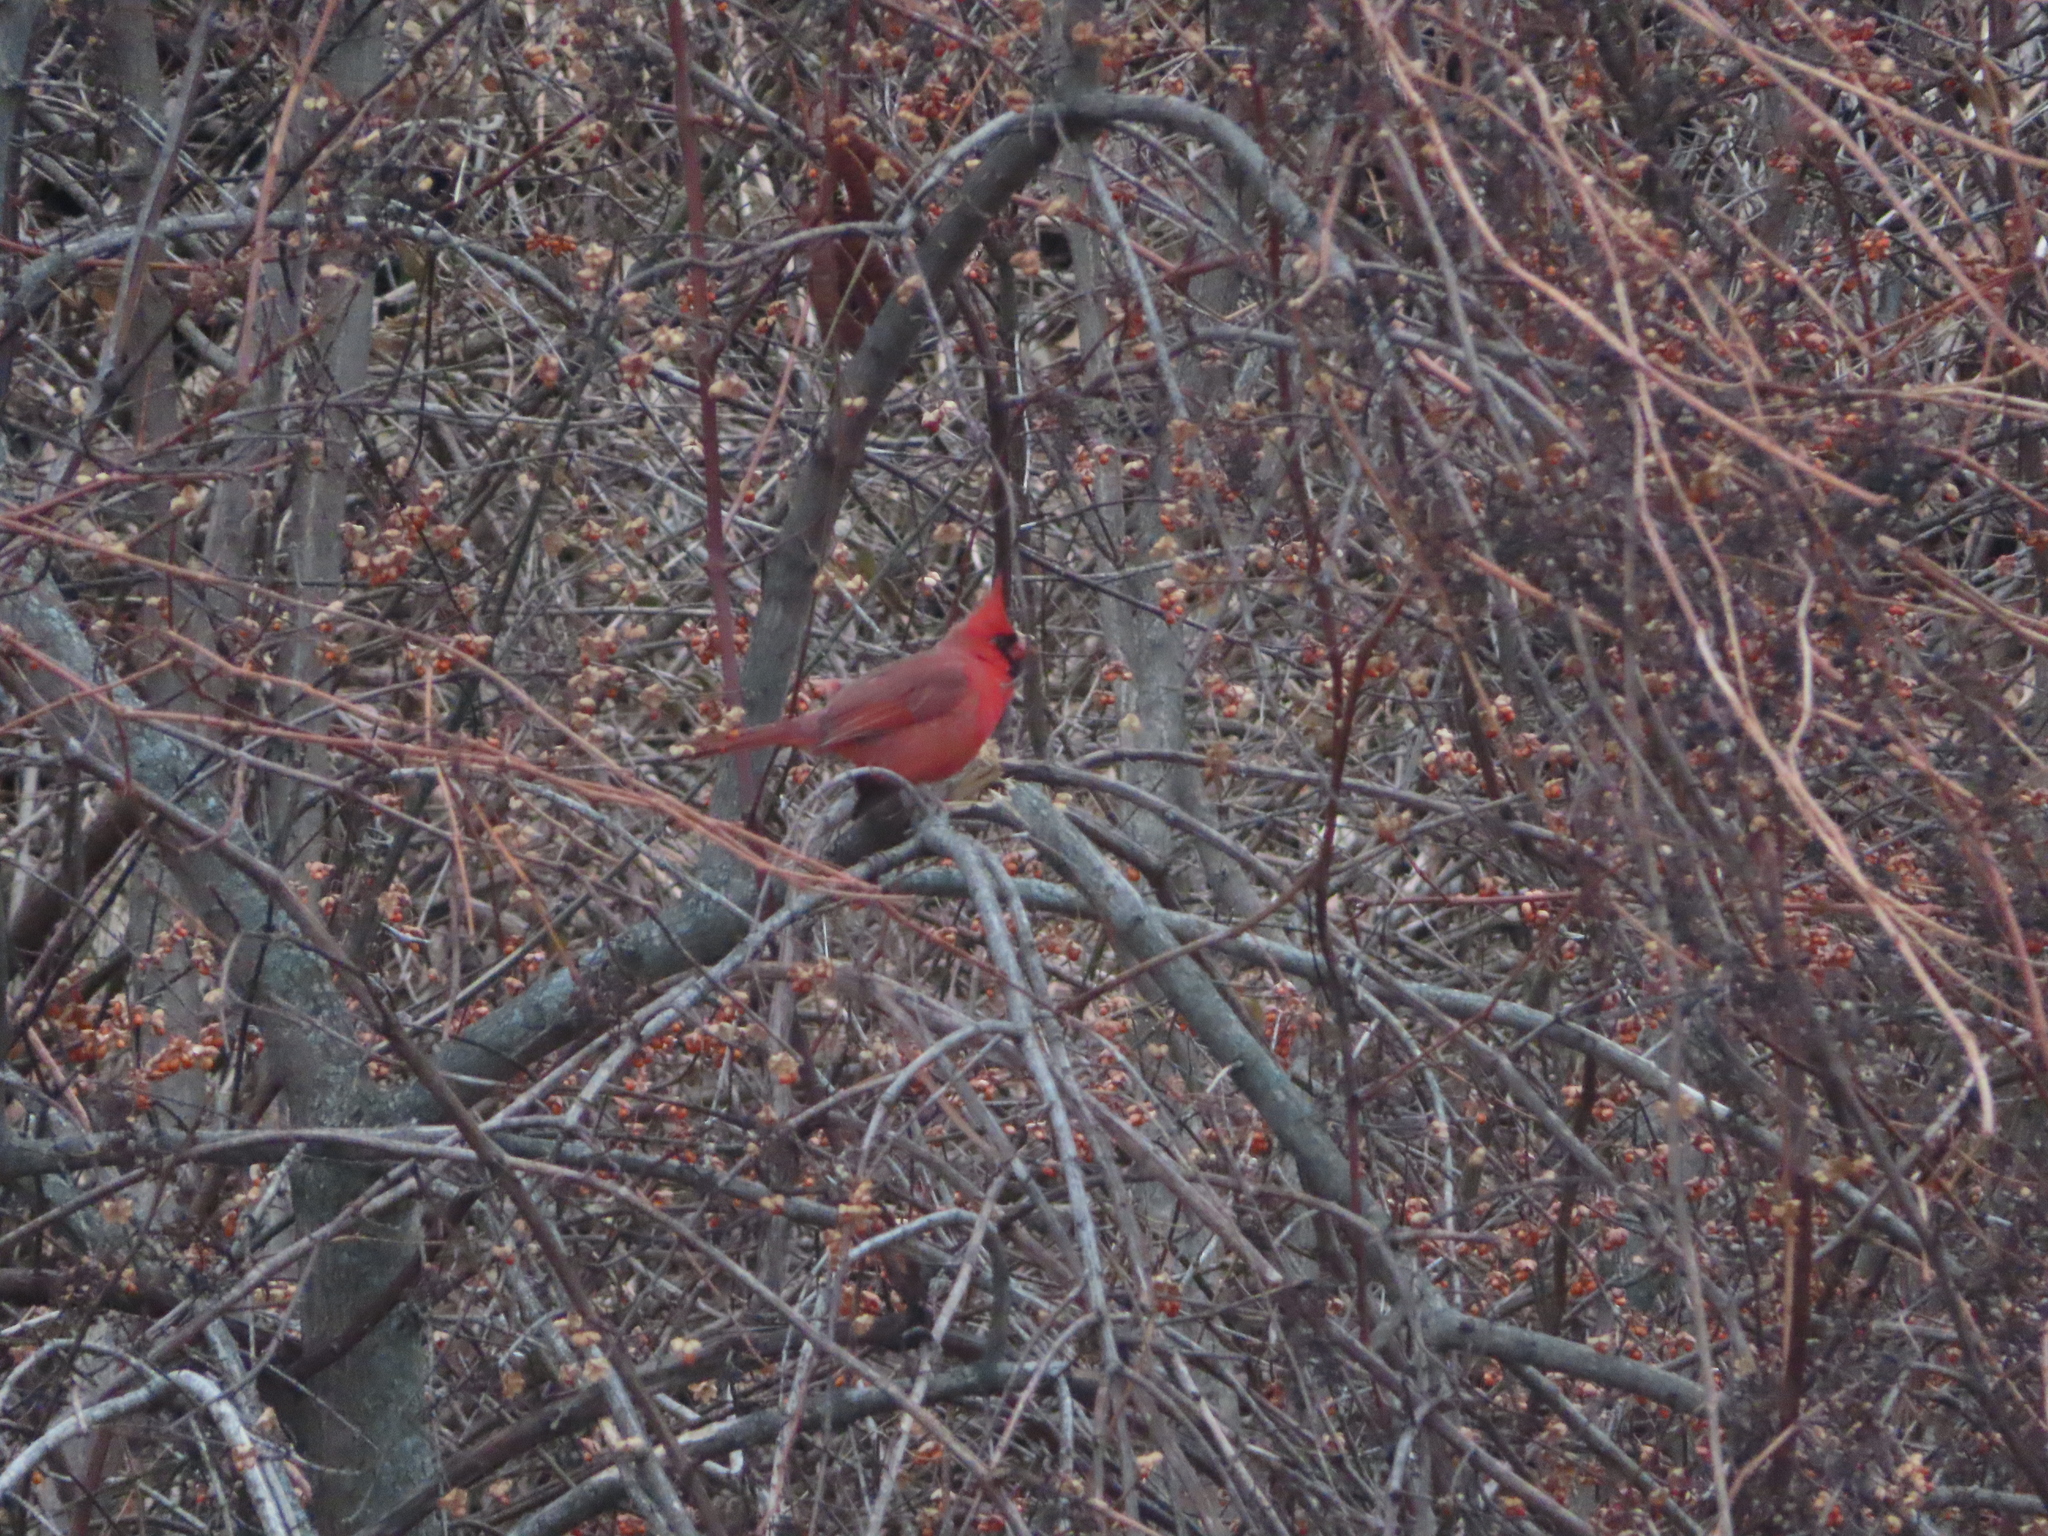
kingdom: Animalia
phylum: Chordata
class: Aves
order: Passeriformes
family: Cardinalidae
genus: Cardinalis
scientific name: Cardinalis cardinalis
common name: Northern cardinal
